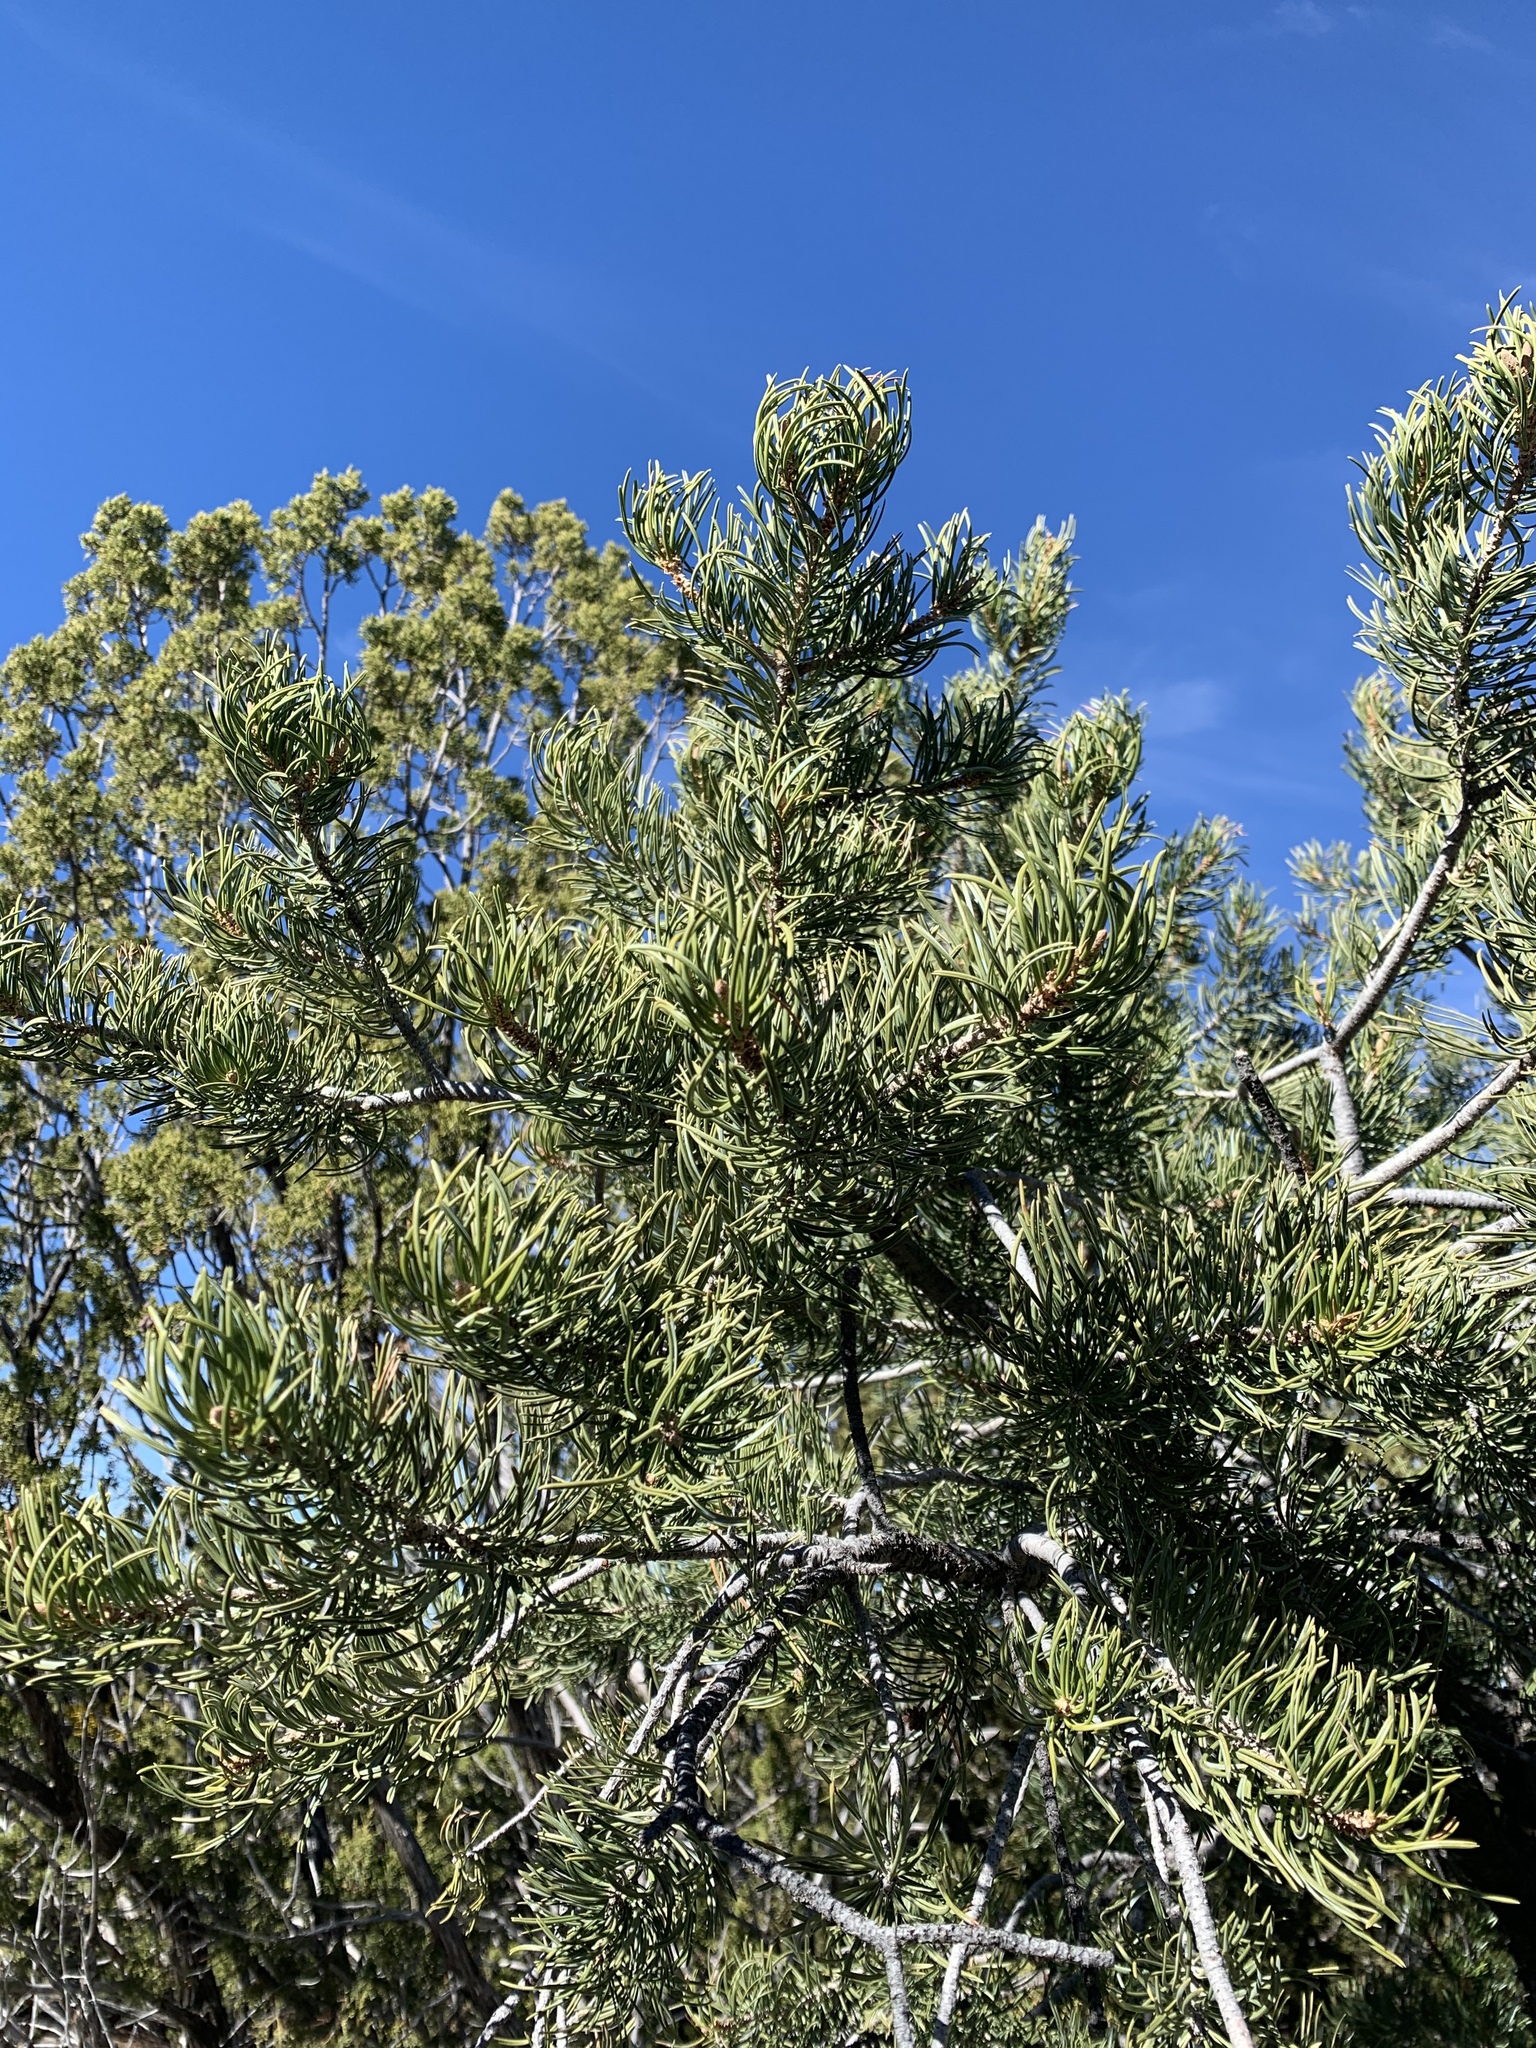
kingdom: Plantae
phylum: Tracheophyta
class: Pinopsida
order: Pinales
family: Pinaceae
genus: Pinus
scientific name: Pinus edulis
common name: Colorado pinyon
